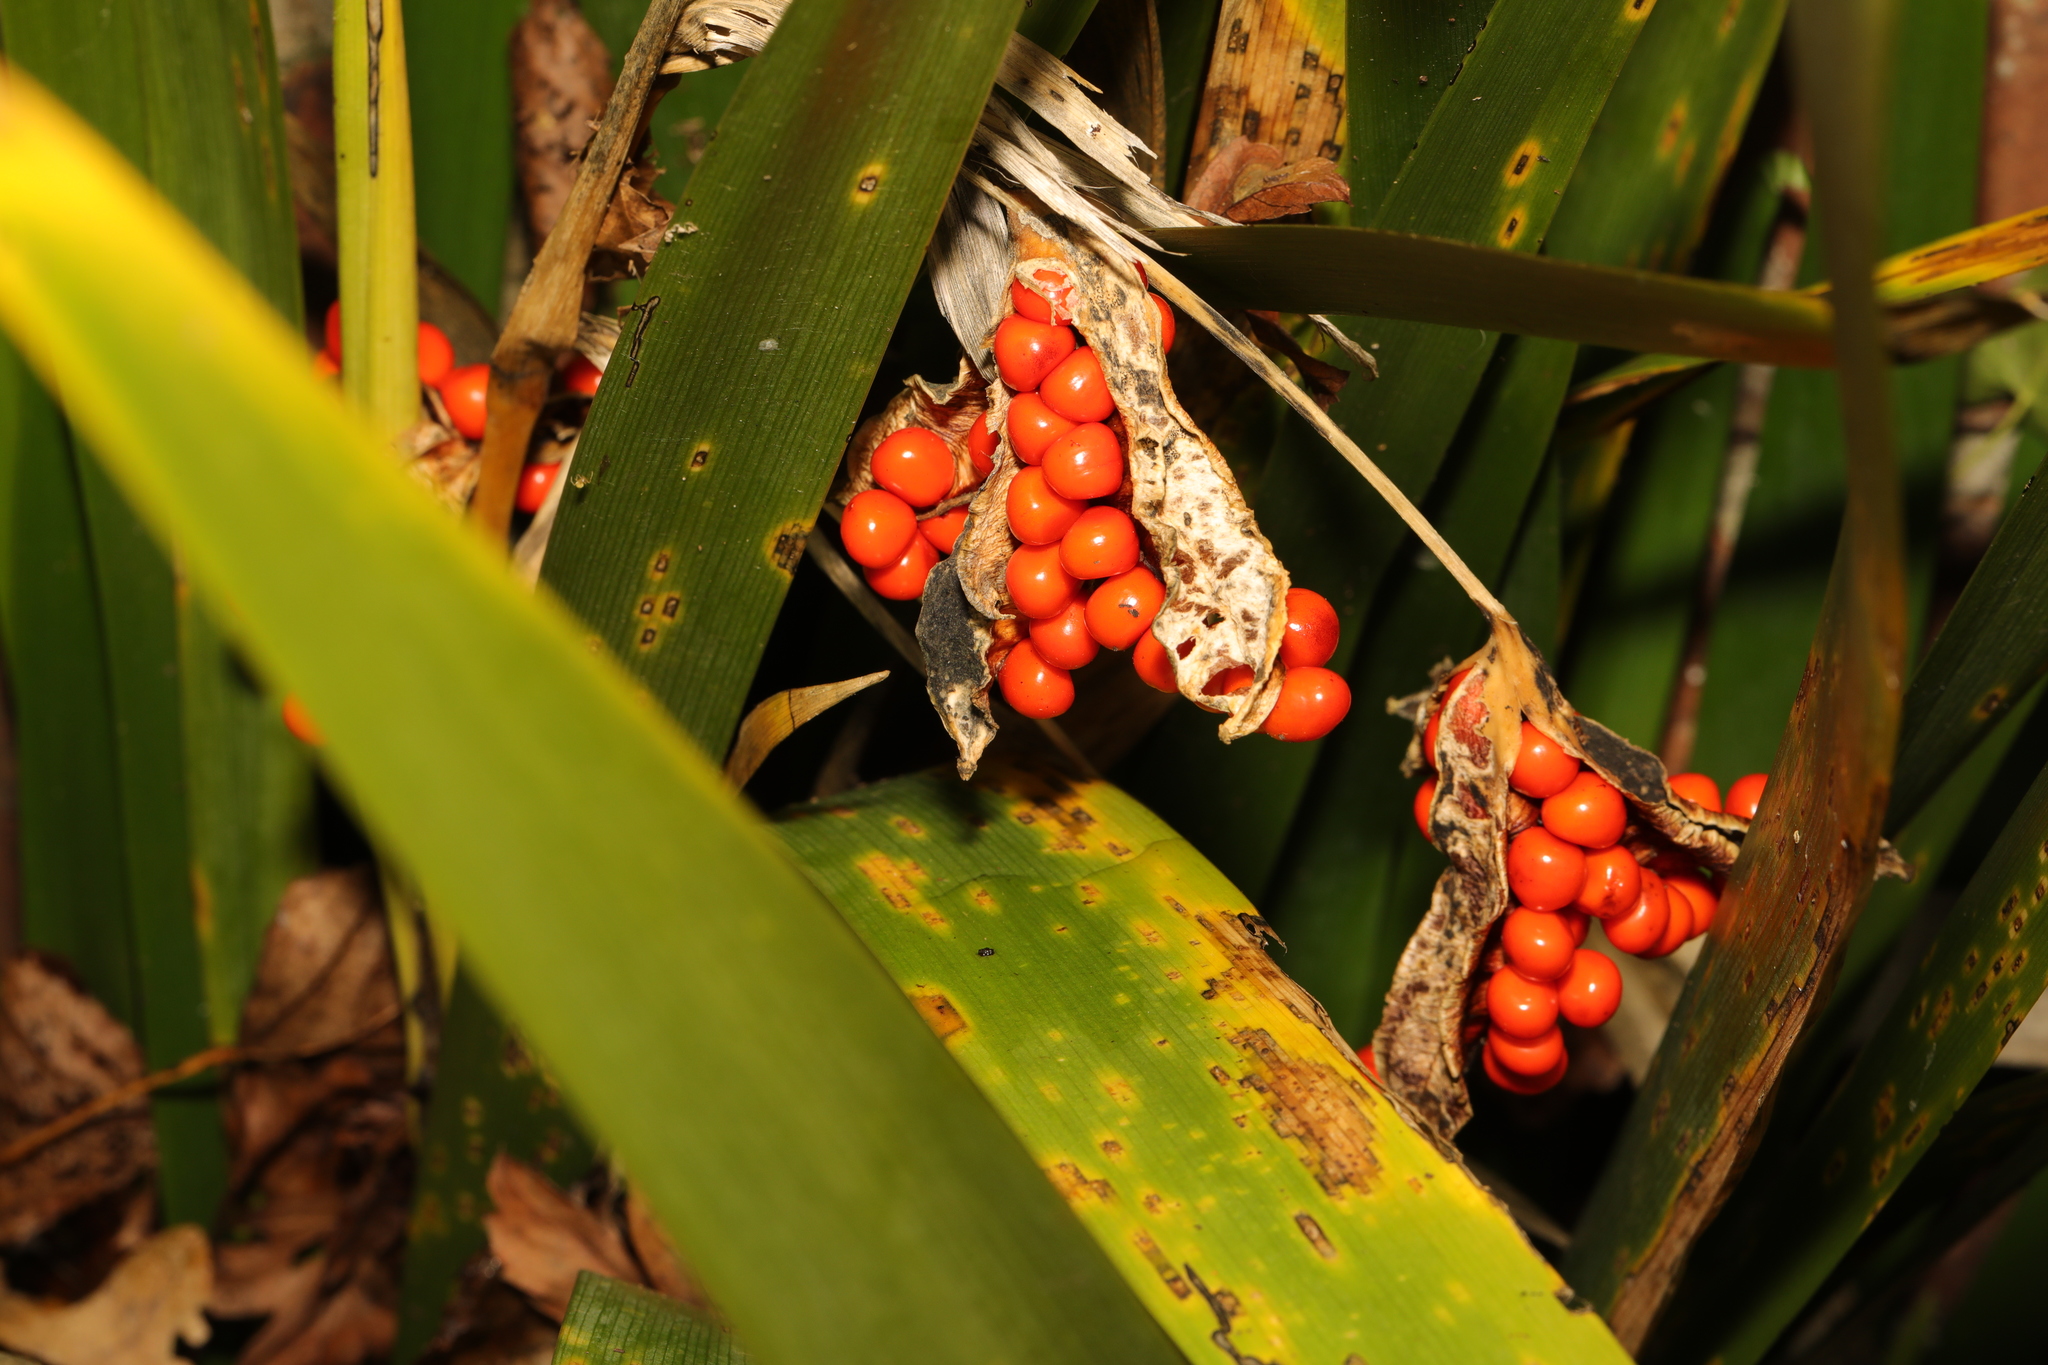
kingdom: Plantae
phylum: Tracheophyta
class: Liliopsida
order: Asparagales
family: Iridaceae
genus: Iris
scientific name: Iris foetidissima
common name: Stinking iris
